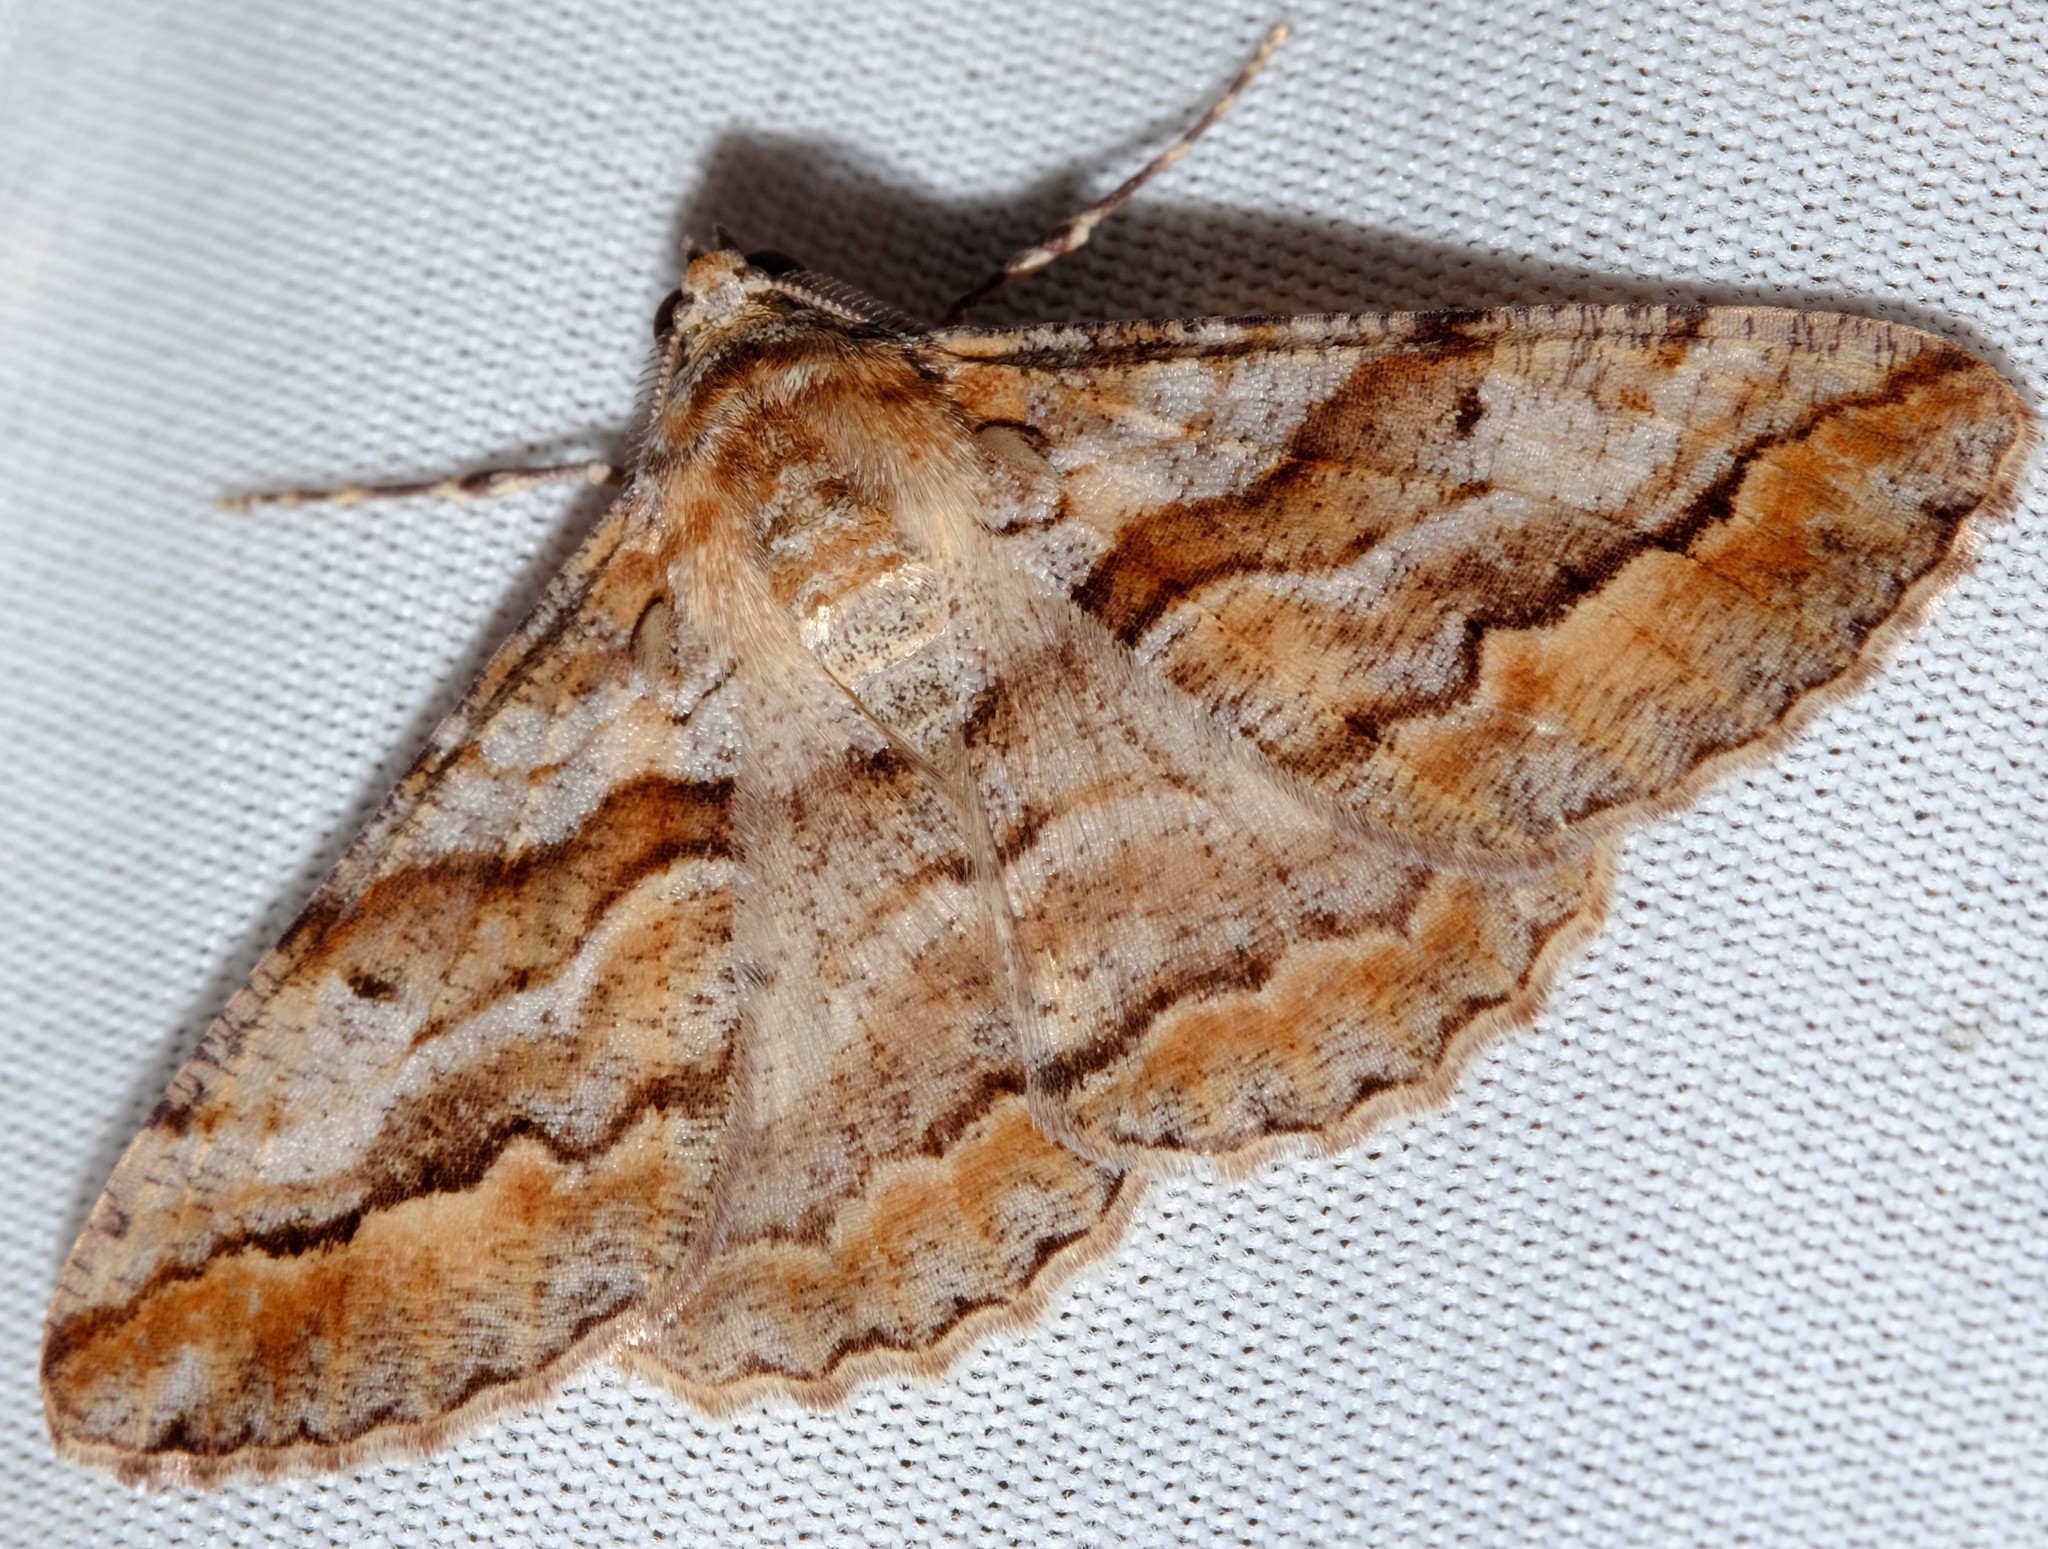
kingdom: Animalia
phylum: Arthropoda
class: Insecta
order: Lepidoptera
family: Geometridae
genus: Gastrinodes
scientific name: Gastrinodes bitaeniaria
